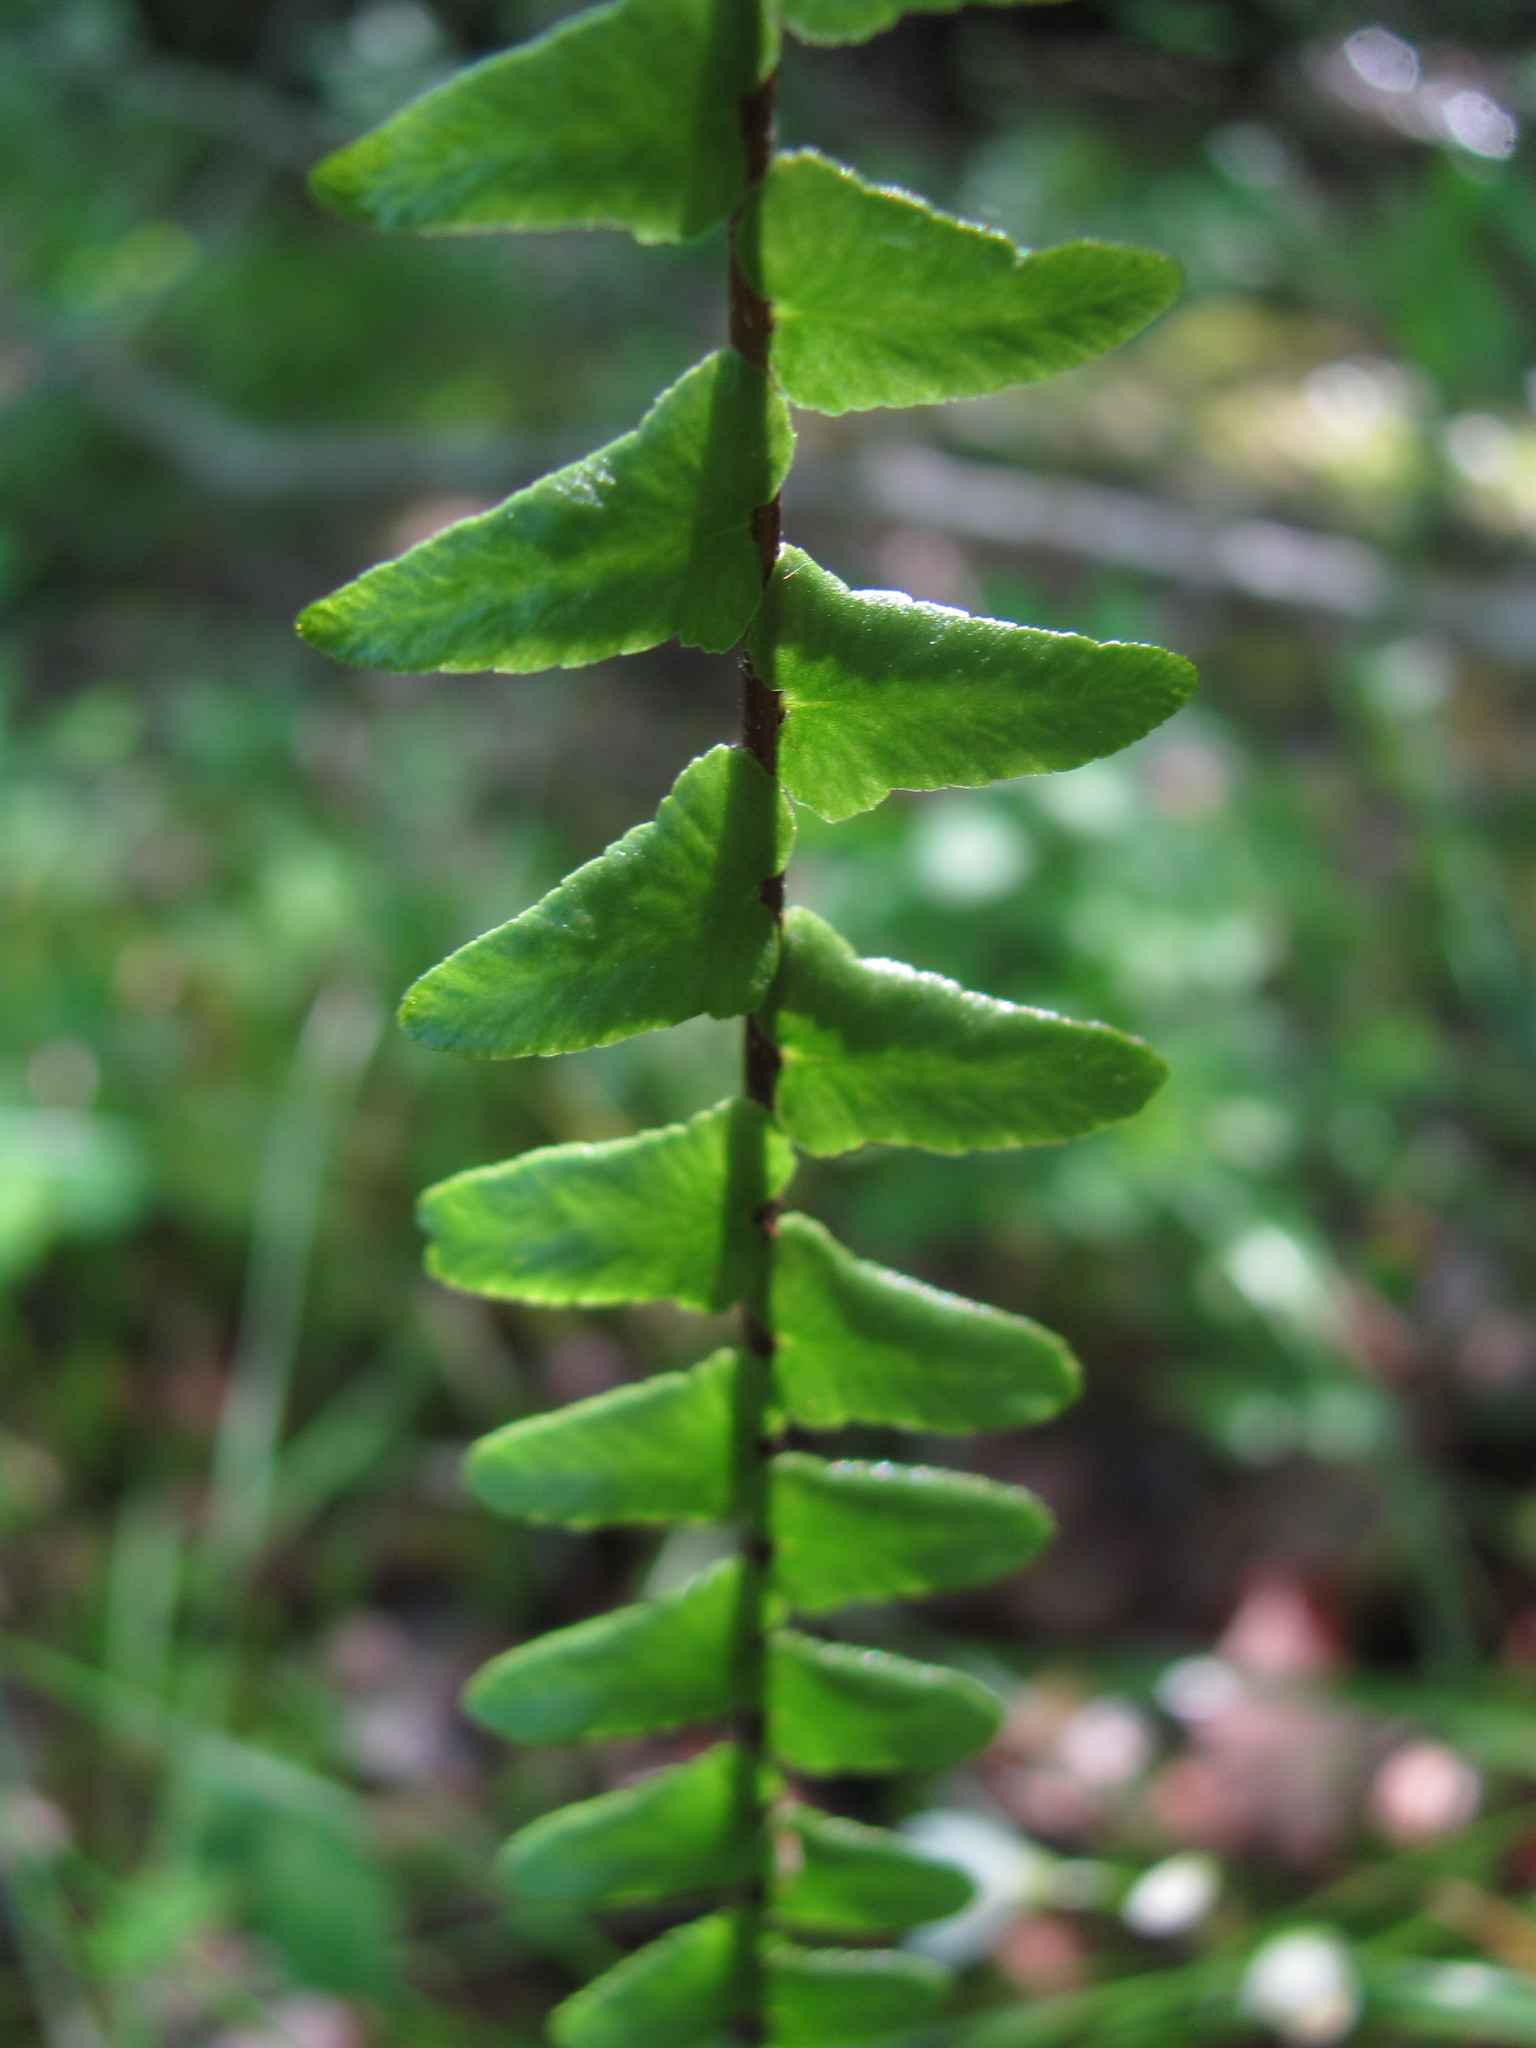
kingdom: Plantae
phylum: Tracheophyta
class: Polypodiopsida
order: Polypodiales
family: Aspleniaceae
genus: Asplenium
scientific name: Asplenium platyneuron
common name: Ebony spleenwort
